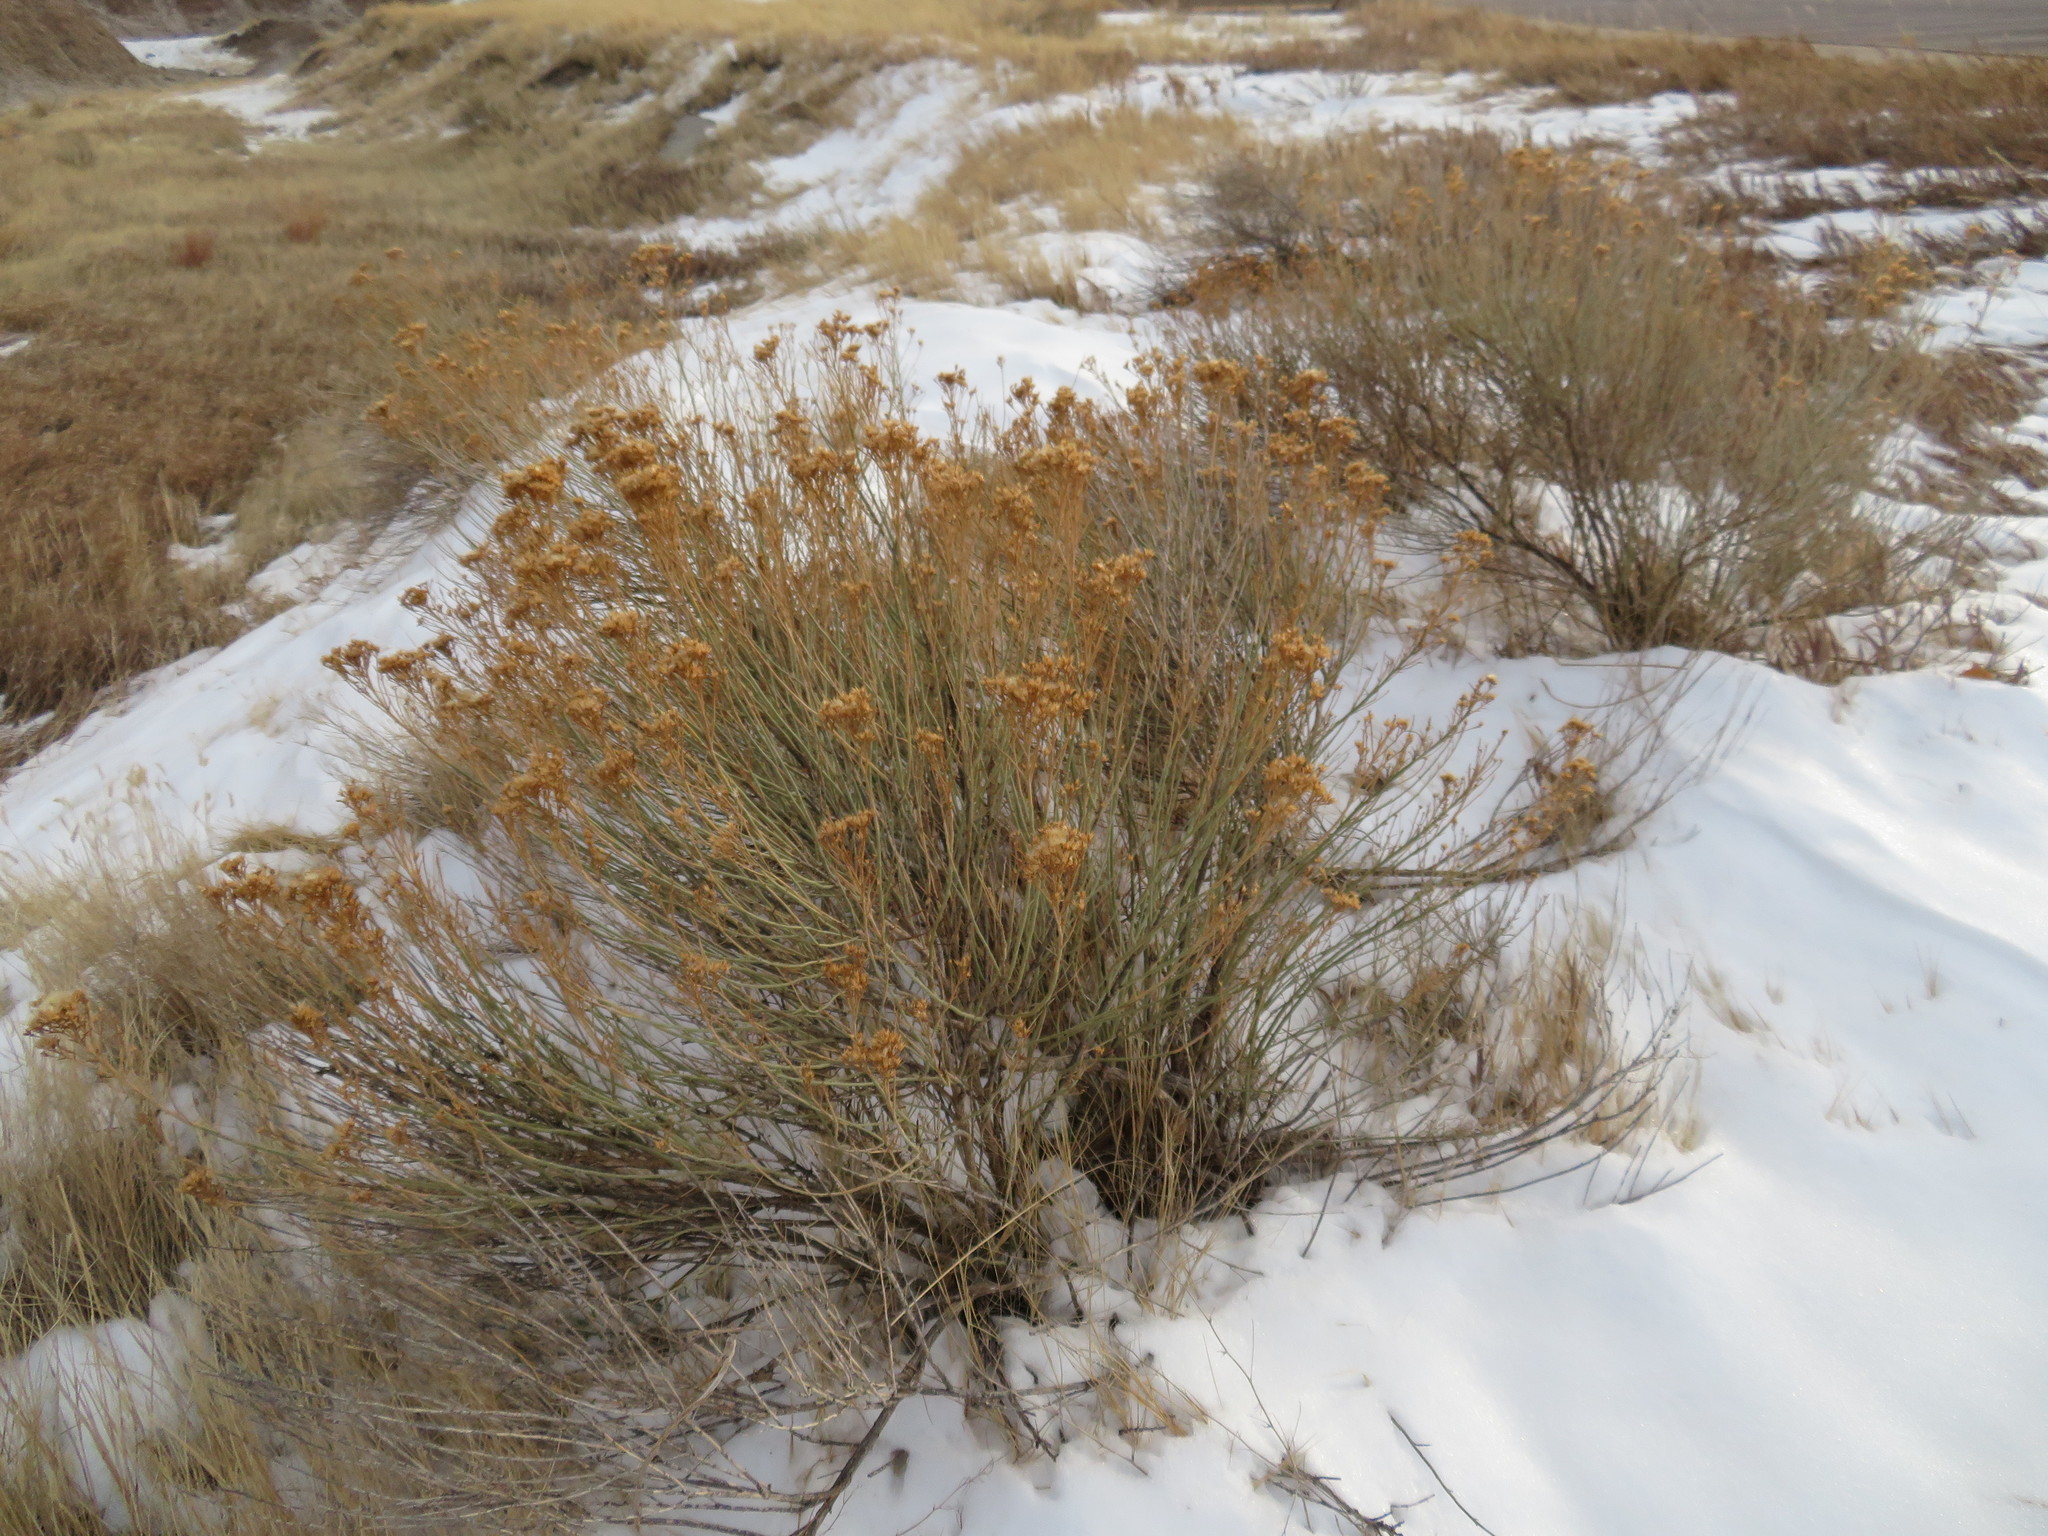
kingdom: Plantae
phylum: Tracheophyta
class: Magnoliopsida
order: Asterales
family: Asteraceae
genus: Ericameria
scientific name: Ericameria nauseosa
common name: Rubber rabbitbrush
